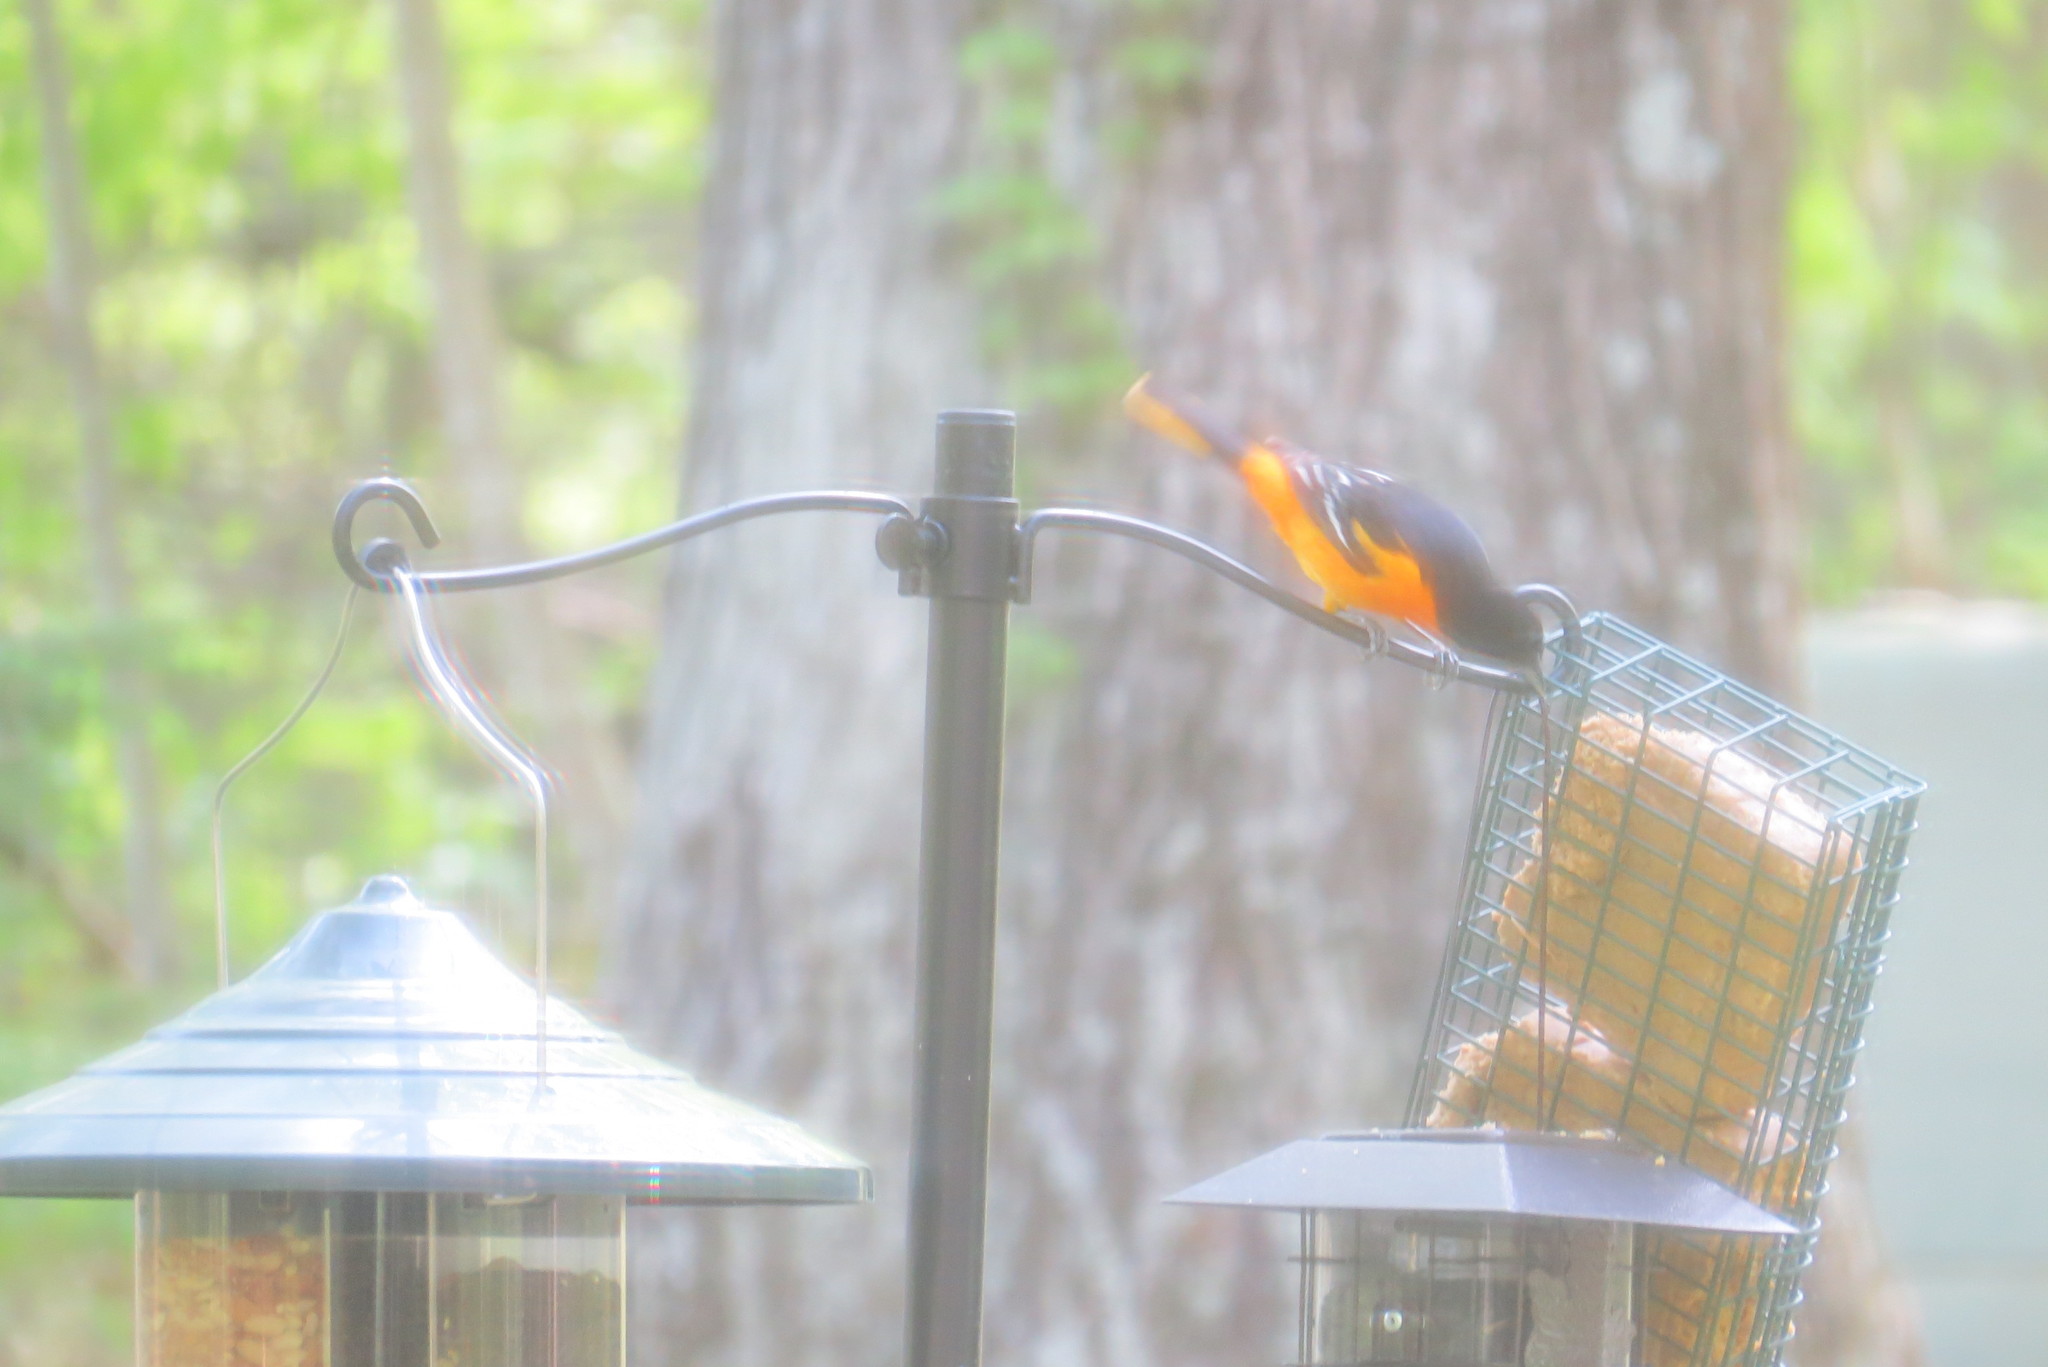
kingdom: Animalia
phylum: Chordata
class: Aves
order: Passeriformes
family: Icteridae
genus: Icterus
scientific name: Icterus galbula
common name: Baltimore oriole
